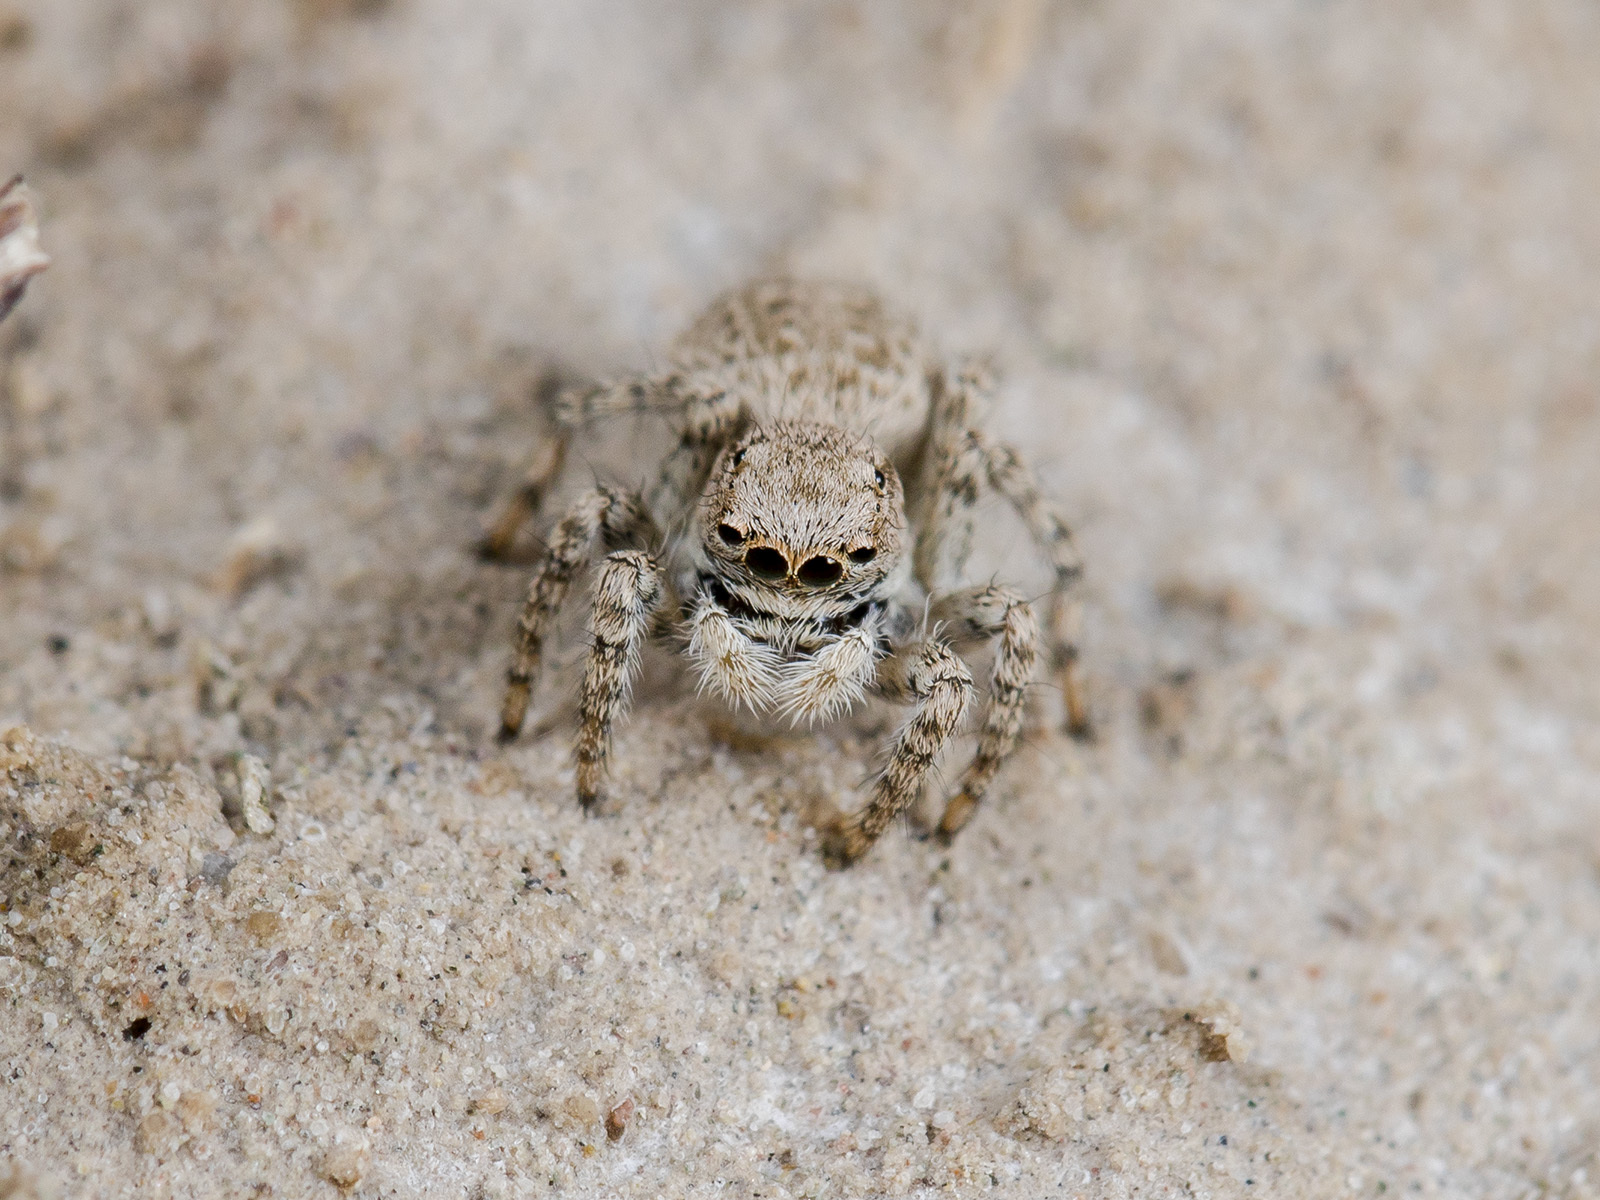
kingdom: Animalia
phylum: Arthropoda
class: Arachnida
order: Araneae
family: Salticidae
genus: Aelurillus
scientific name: Aelurillus andreevae
